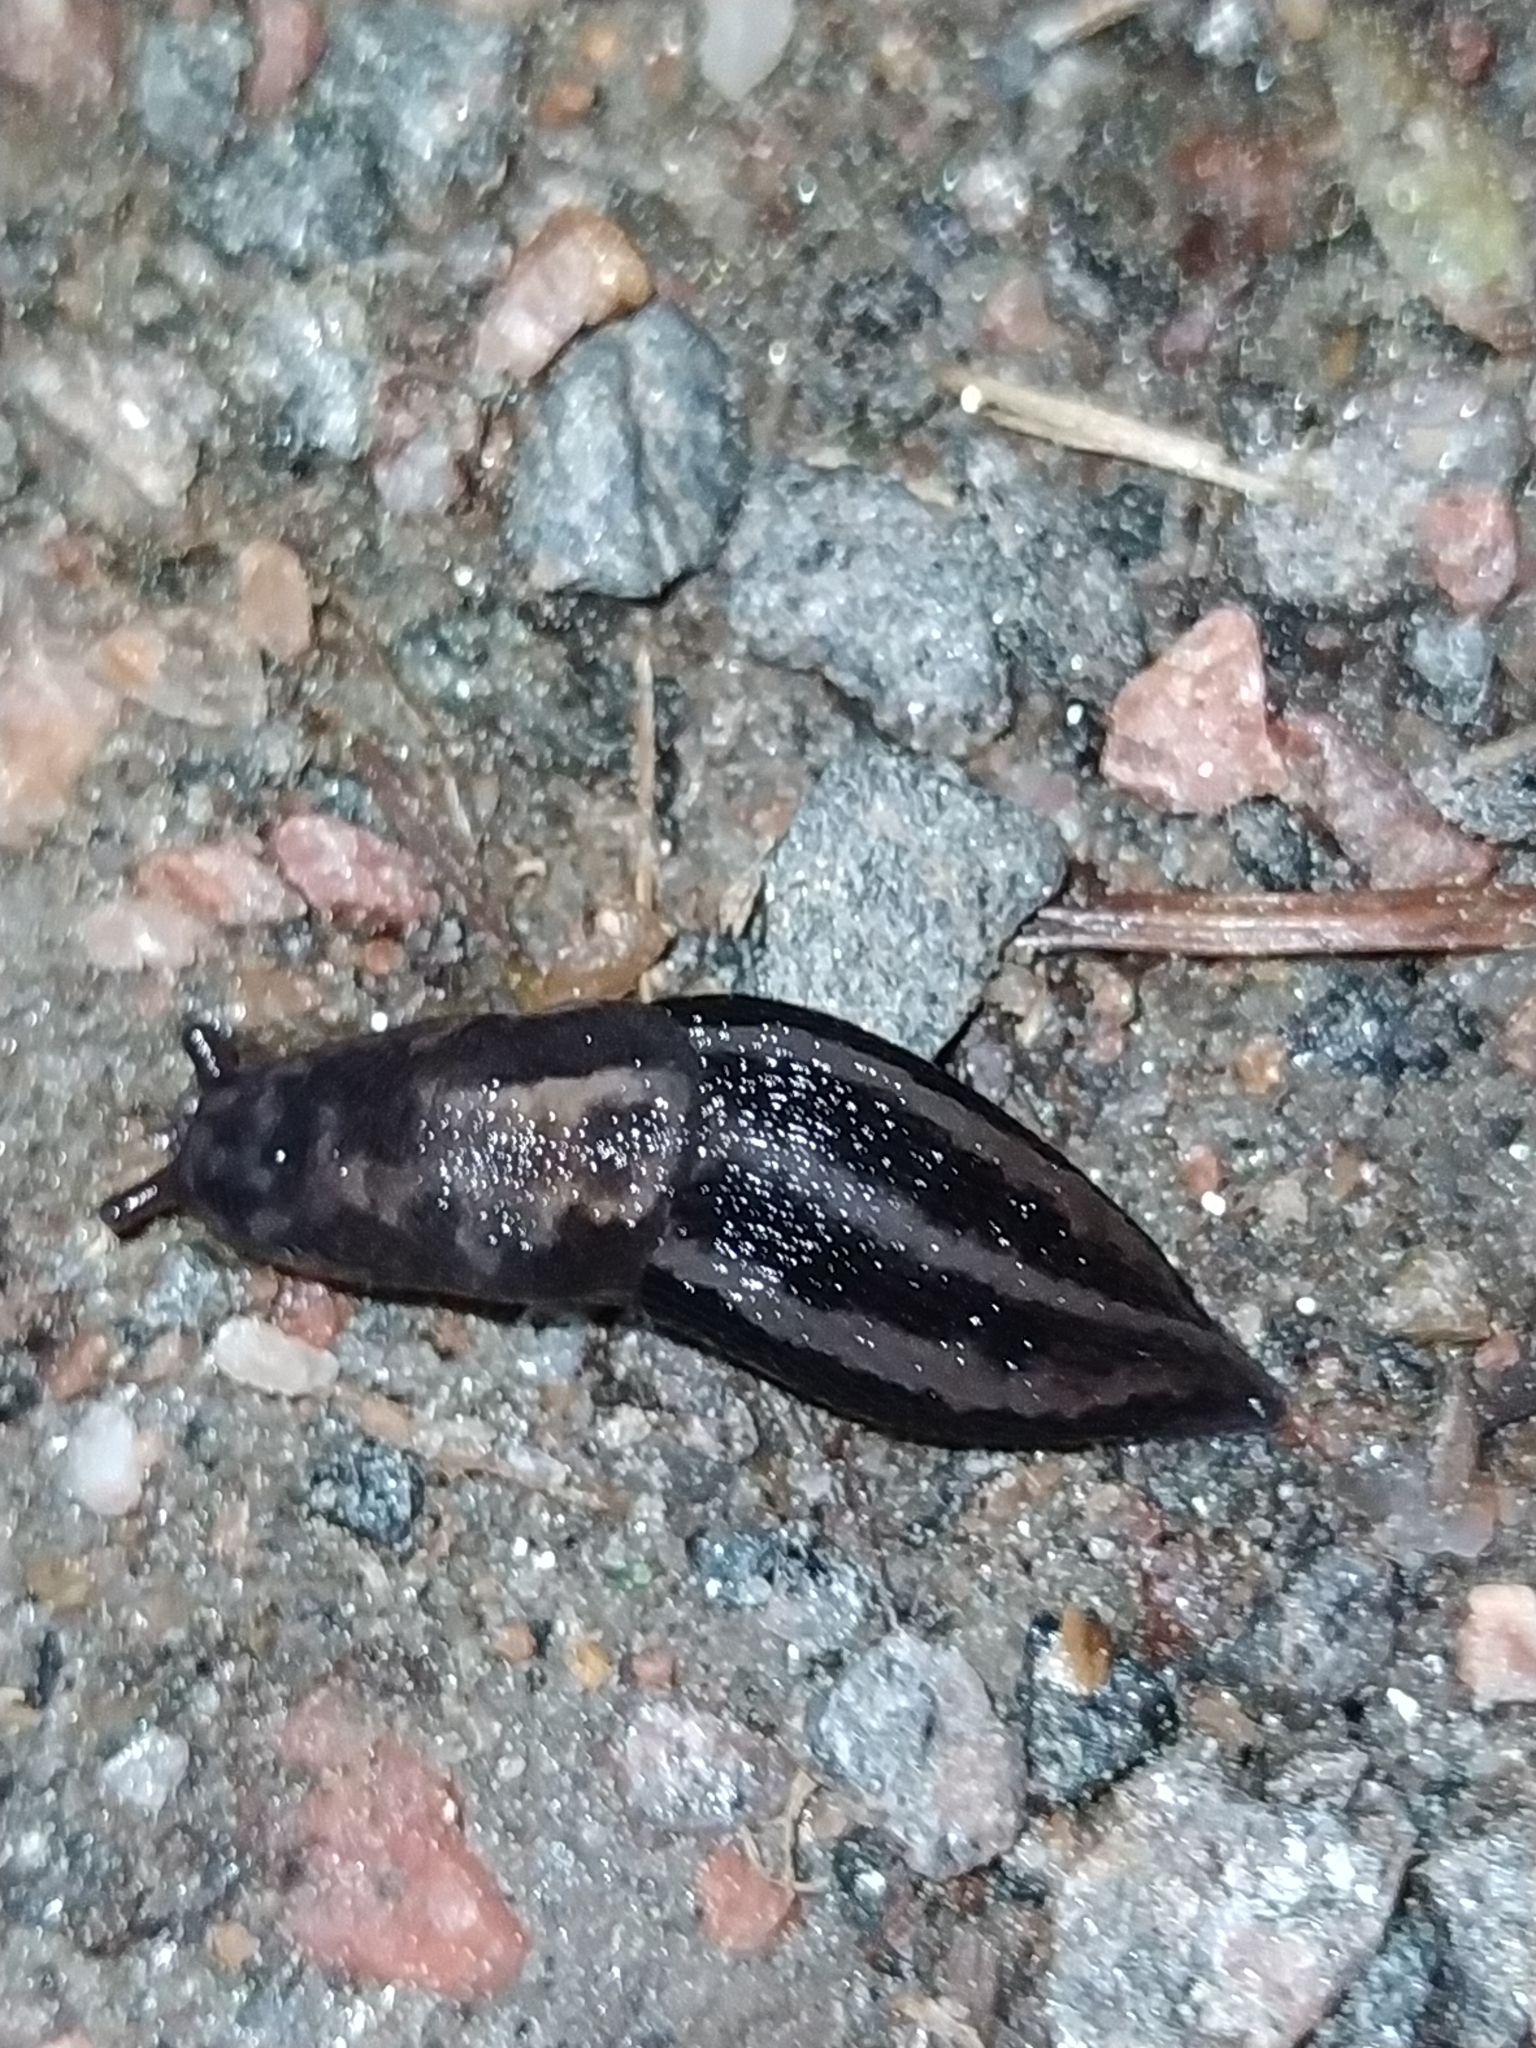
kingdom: Animalia
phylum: Mollusca
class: Gastropoda
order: Stylommatophora
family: Limacidae
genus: Limax
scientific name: Limax maximus
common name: Great grey slug
